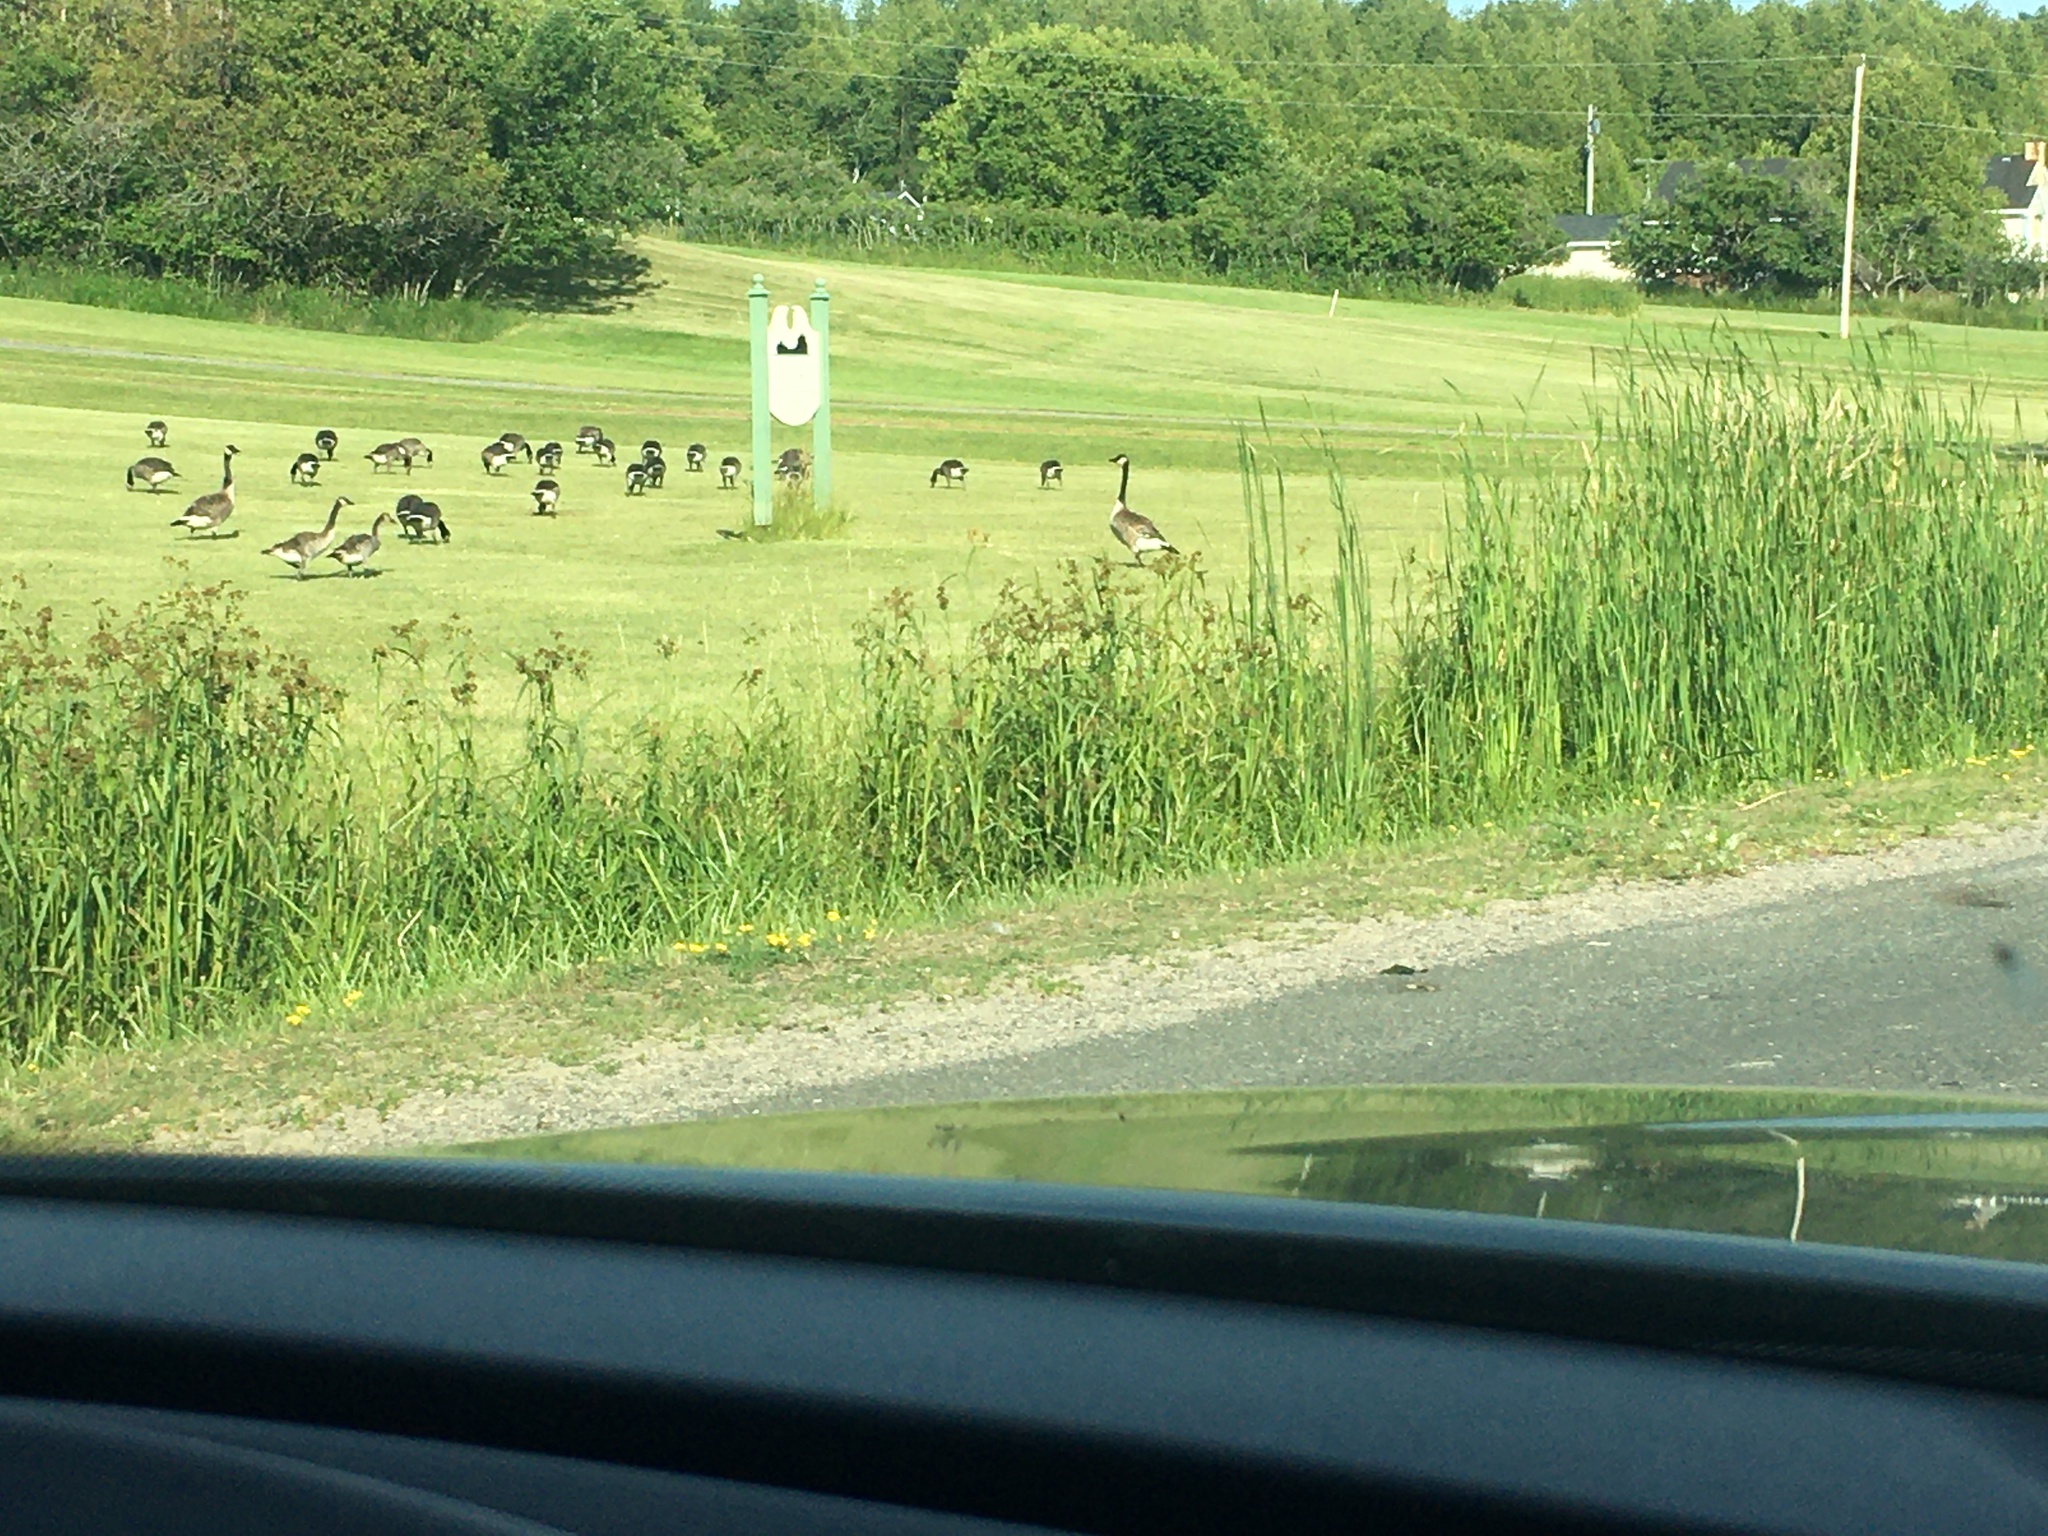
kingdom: Animalia
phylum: Chordata
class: Aves
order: Anseriformes
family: Anatidae
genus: Branta
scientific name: Branta canadensis
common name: Canada goose
